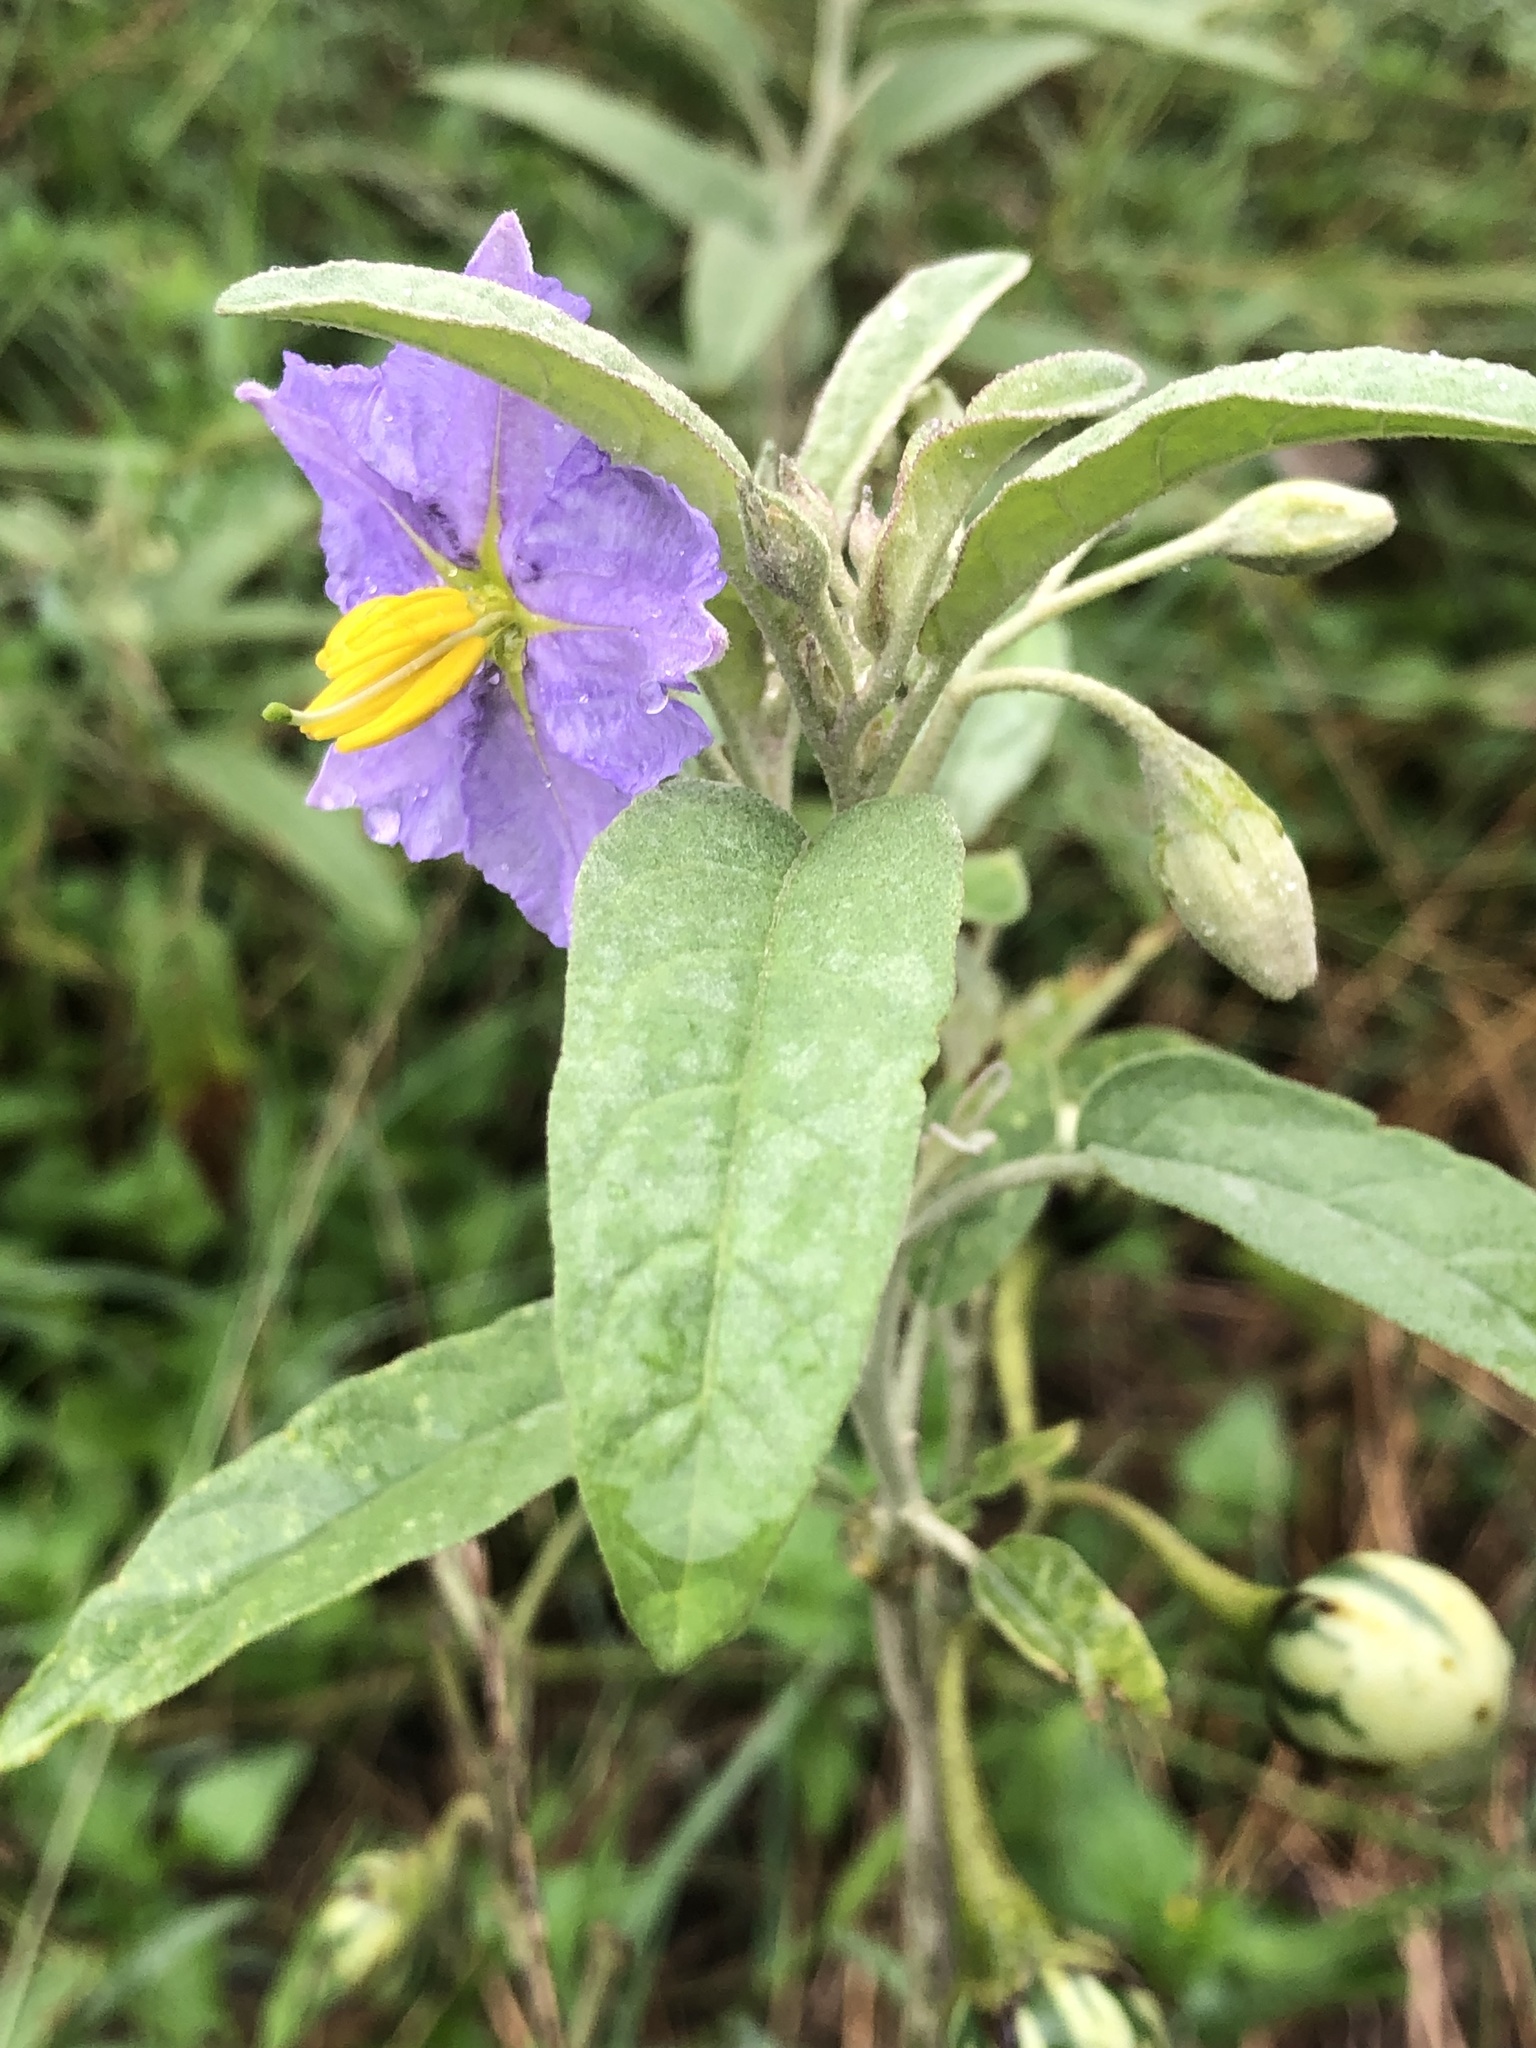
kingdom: Plantae
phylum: Tracheophyta
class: Magnoliopsida
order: Solanales
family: Solanaceae
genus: Solanum
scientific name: Solanum elaeagnifolium
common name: Silverleaf nightshade
